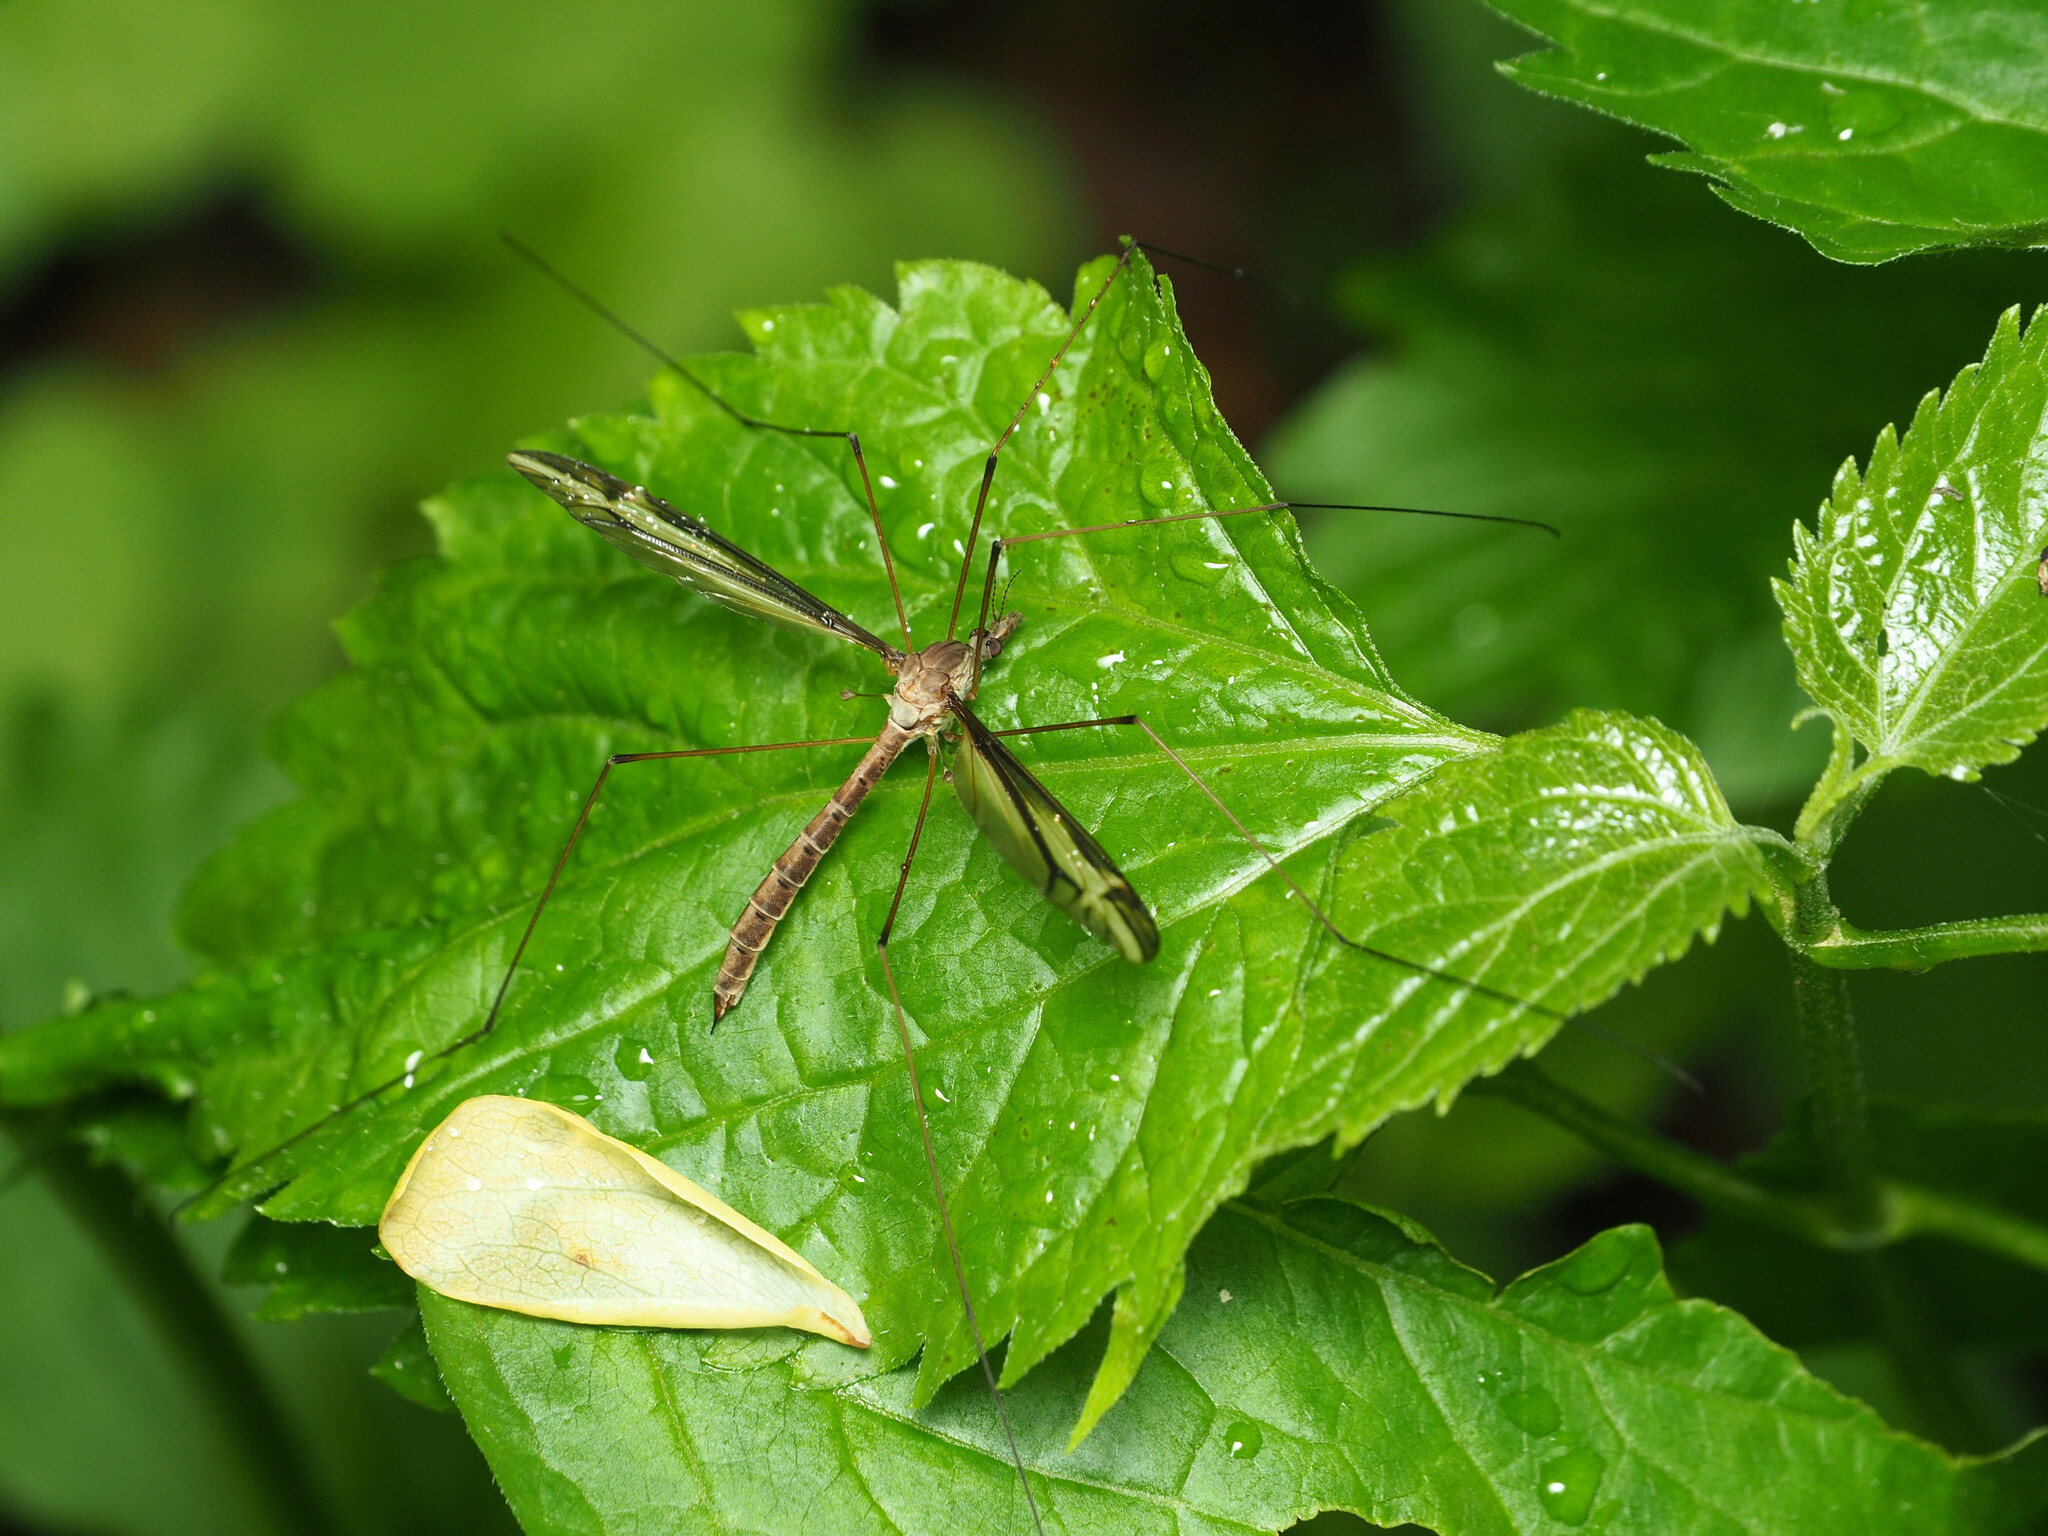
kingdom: Animalia
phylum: Arthropoda
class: Insecta
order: Diptera
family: Tipulidae
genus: Tipula
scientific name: Tipula furca
